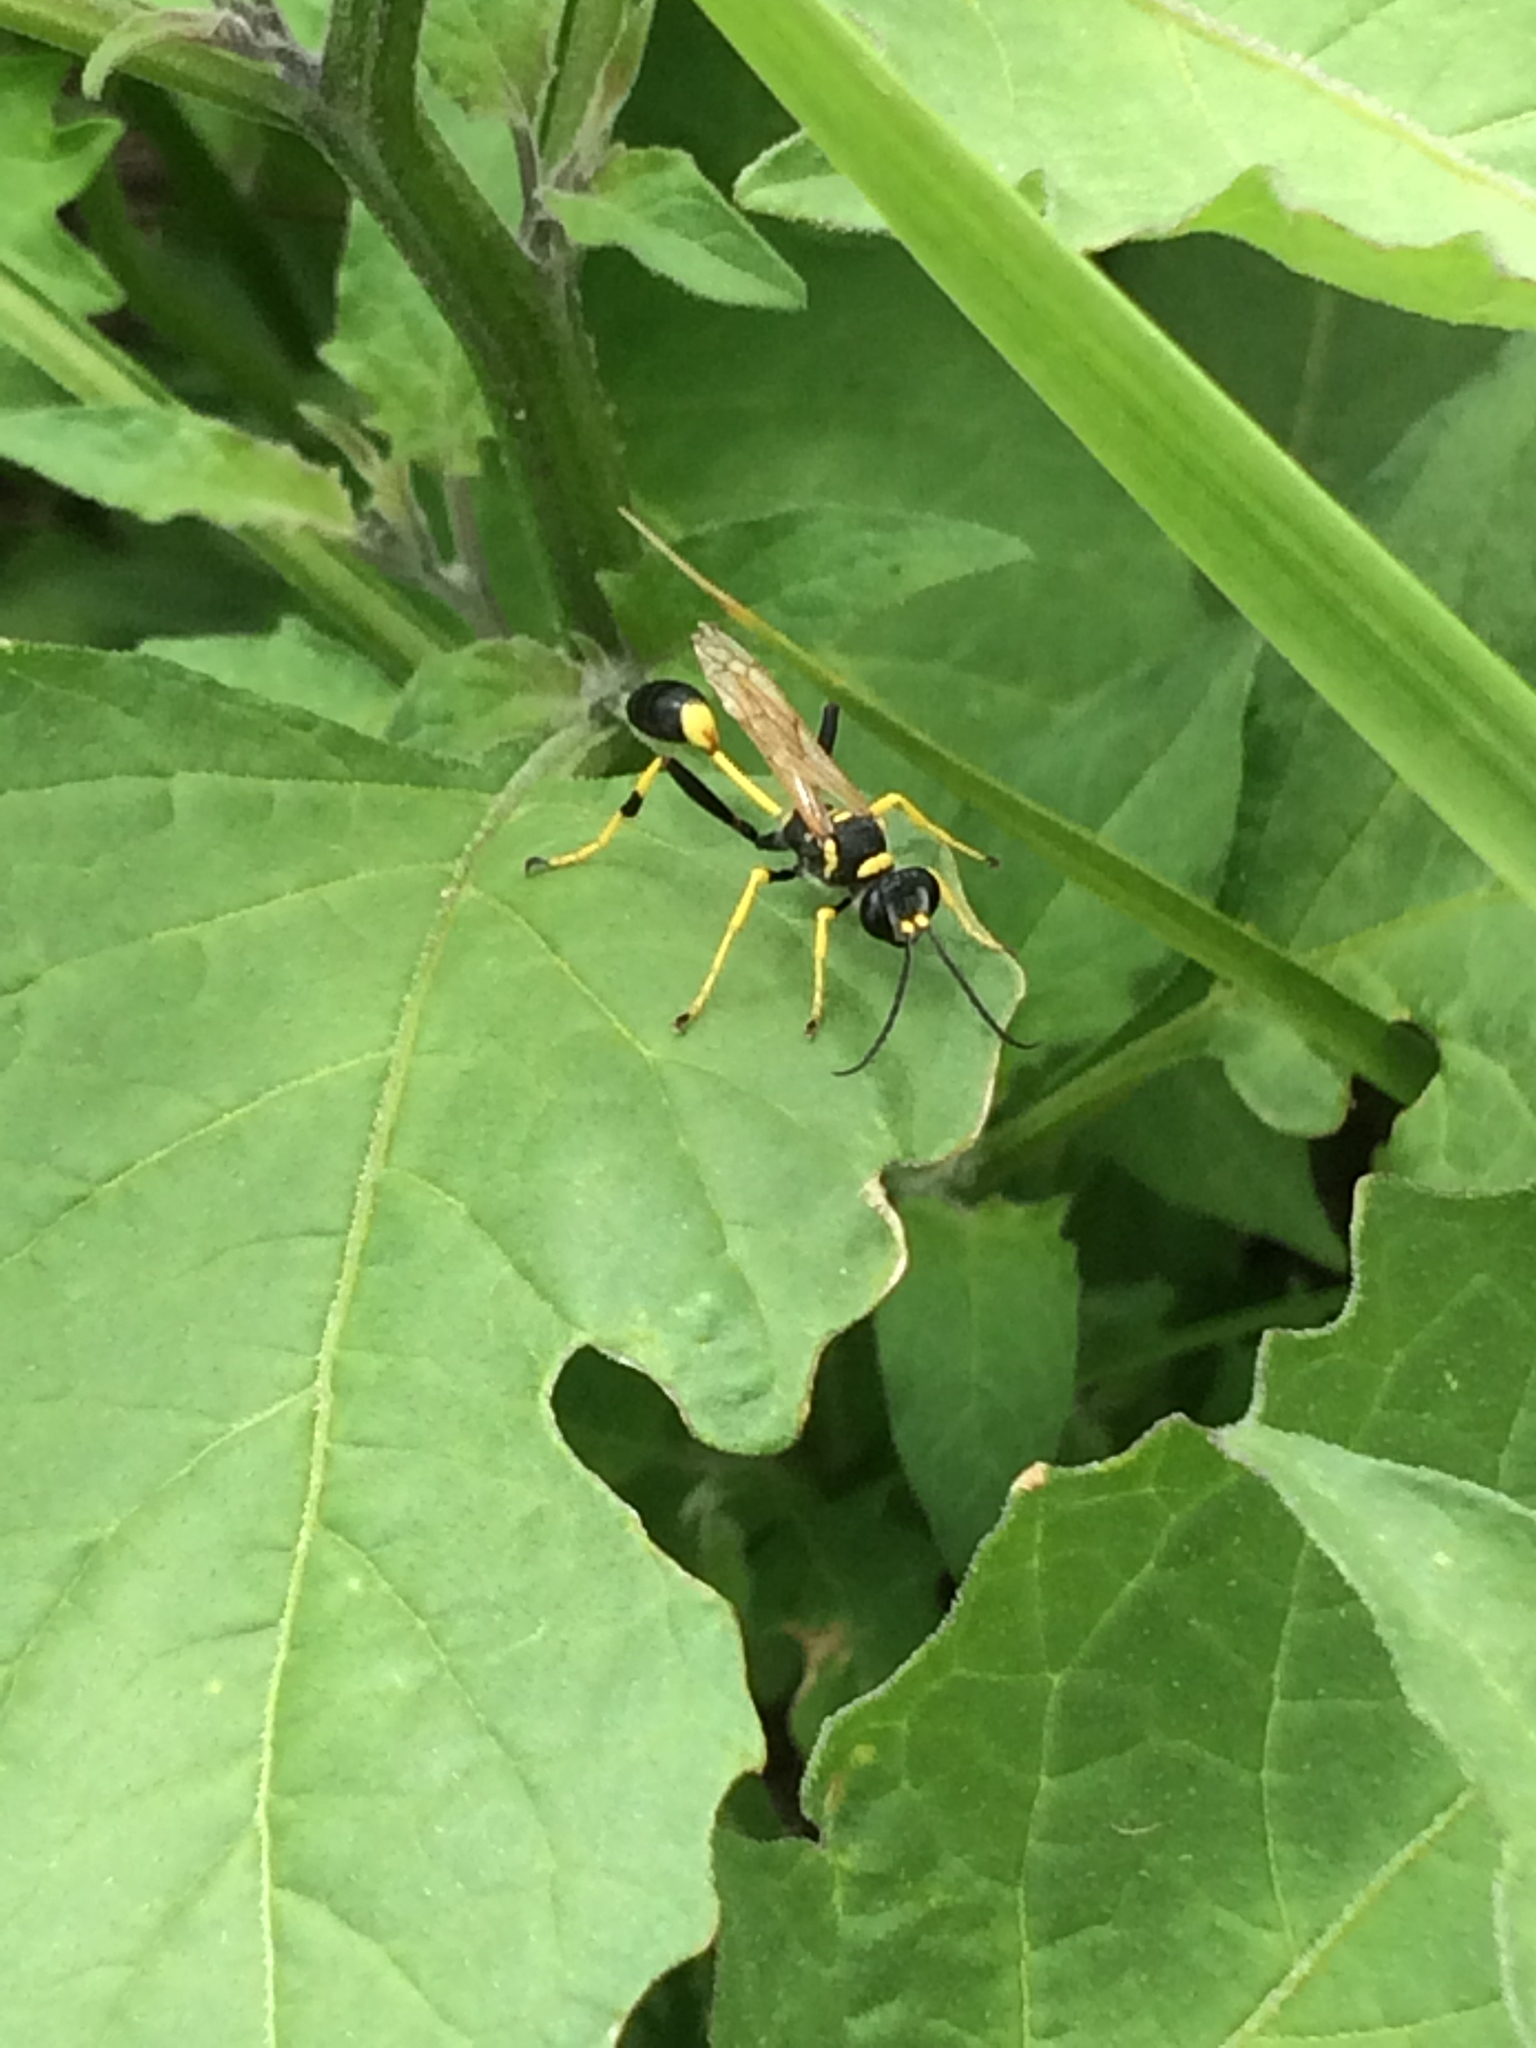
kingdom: Animalia
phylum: Arthropoda
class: Insecta
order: Hymenoptera
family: Sphecidae
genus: Sceliphron
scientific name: Sceliphron caementarium
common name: Mud dauber
